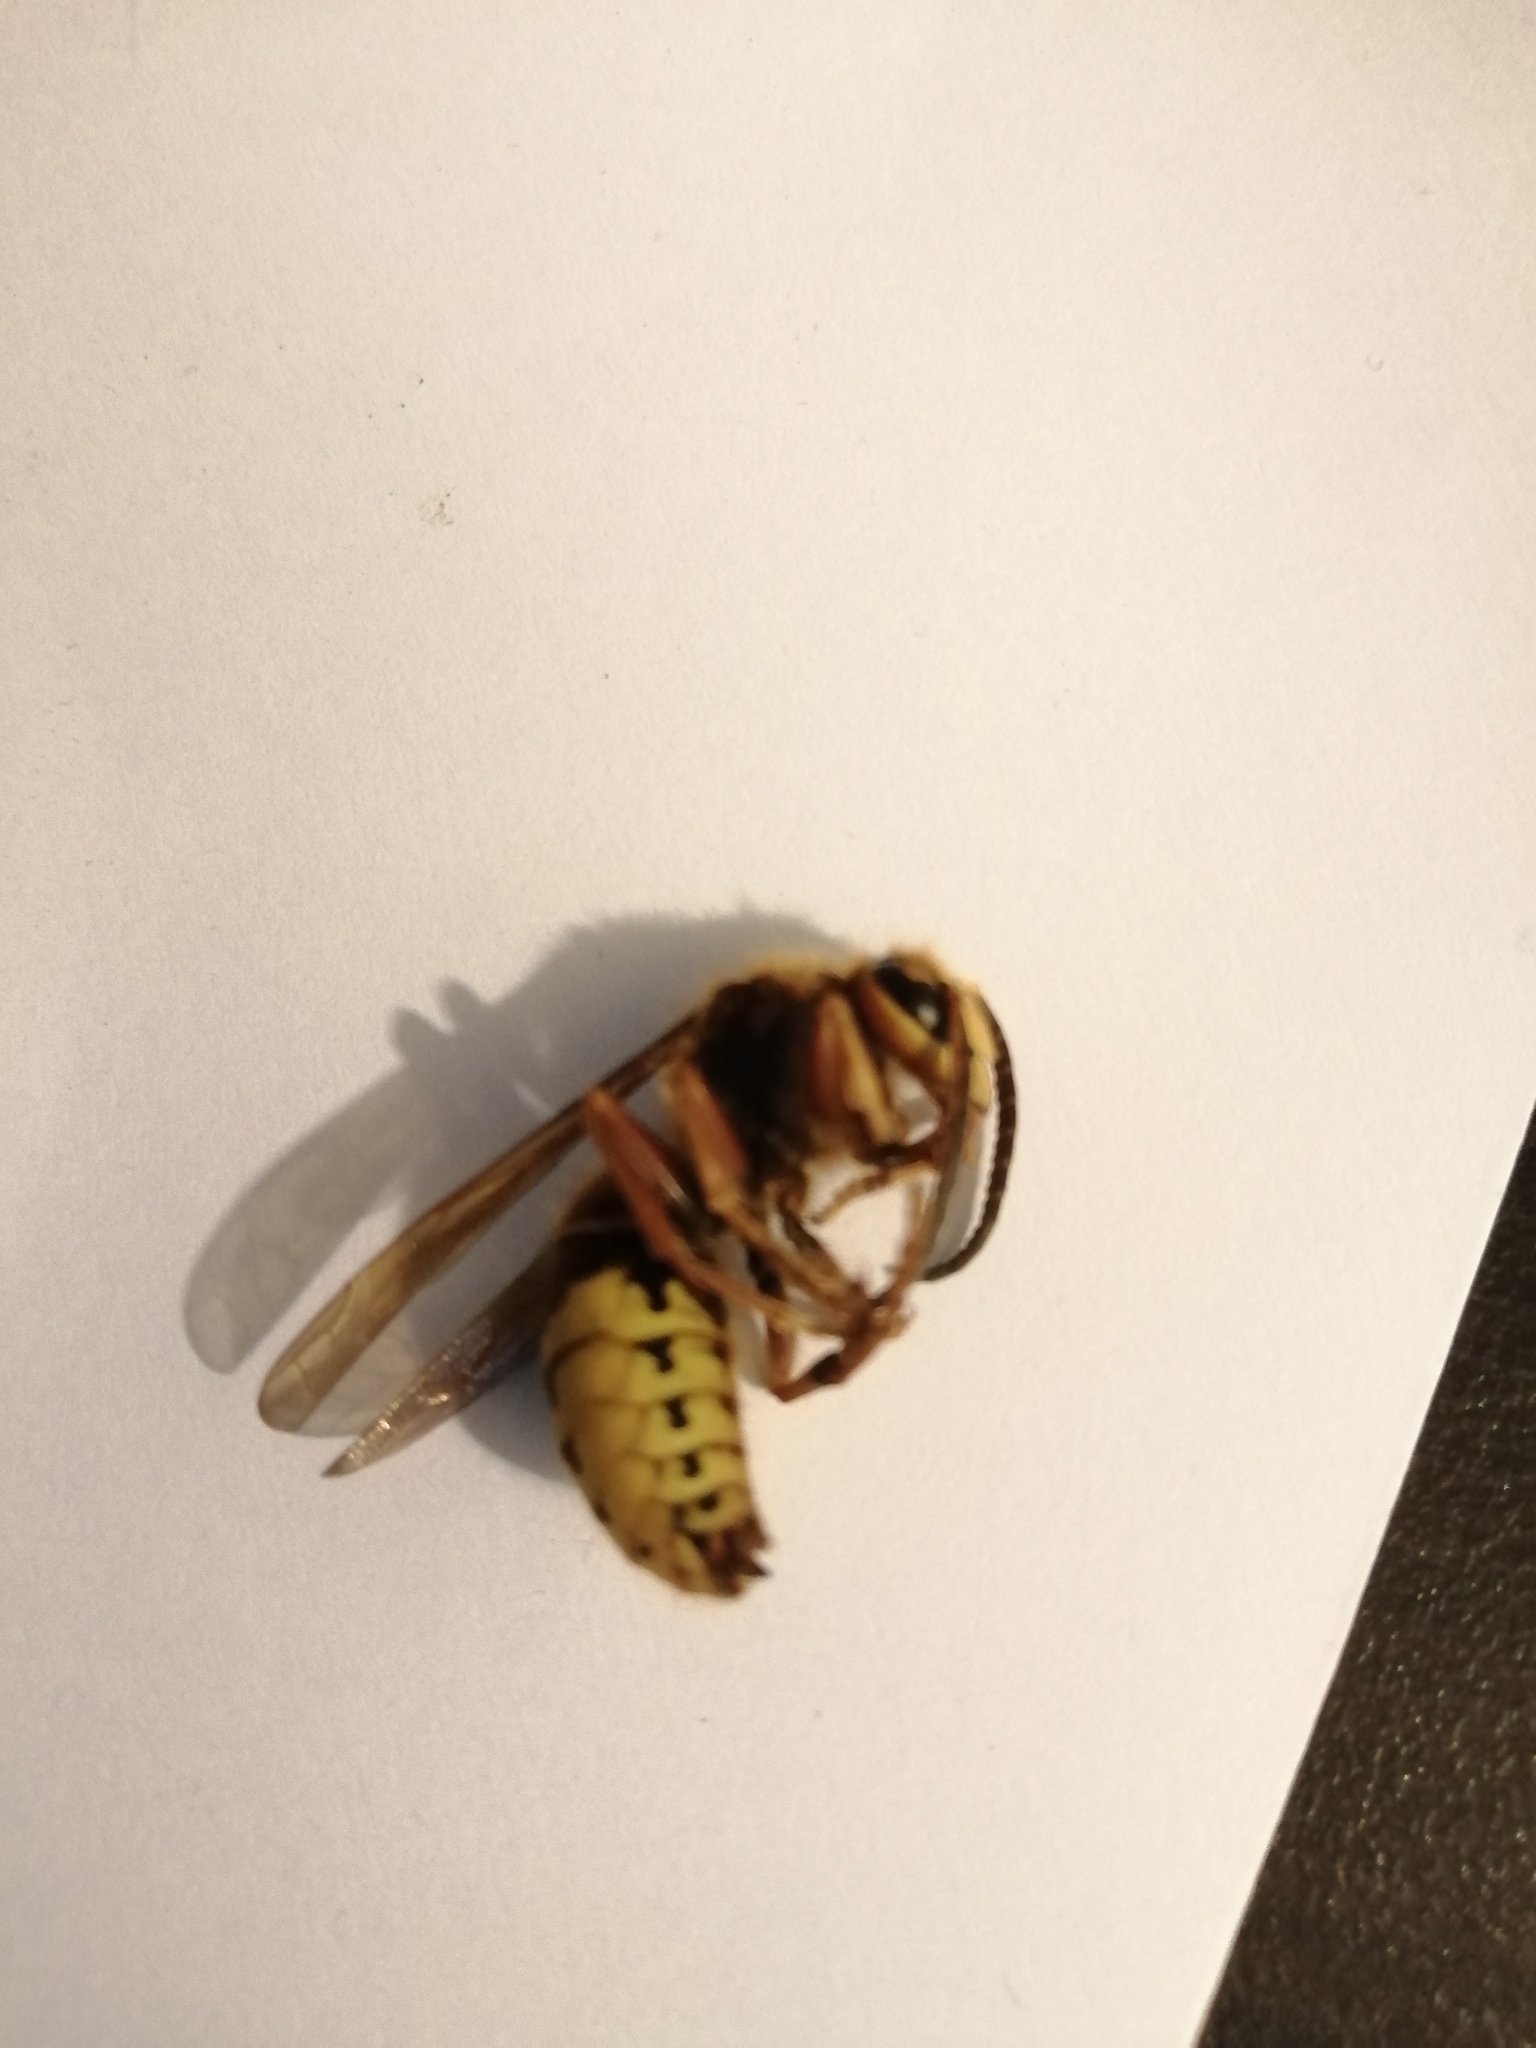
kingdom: Animalia
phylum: Arthropoda
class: Insecta
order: Hymenoptera
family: Vespidae
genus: Vespa
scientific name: Vespa crabro
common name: Hornet
